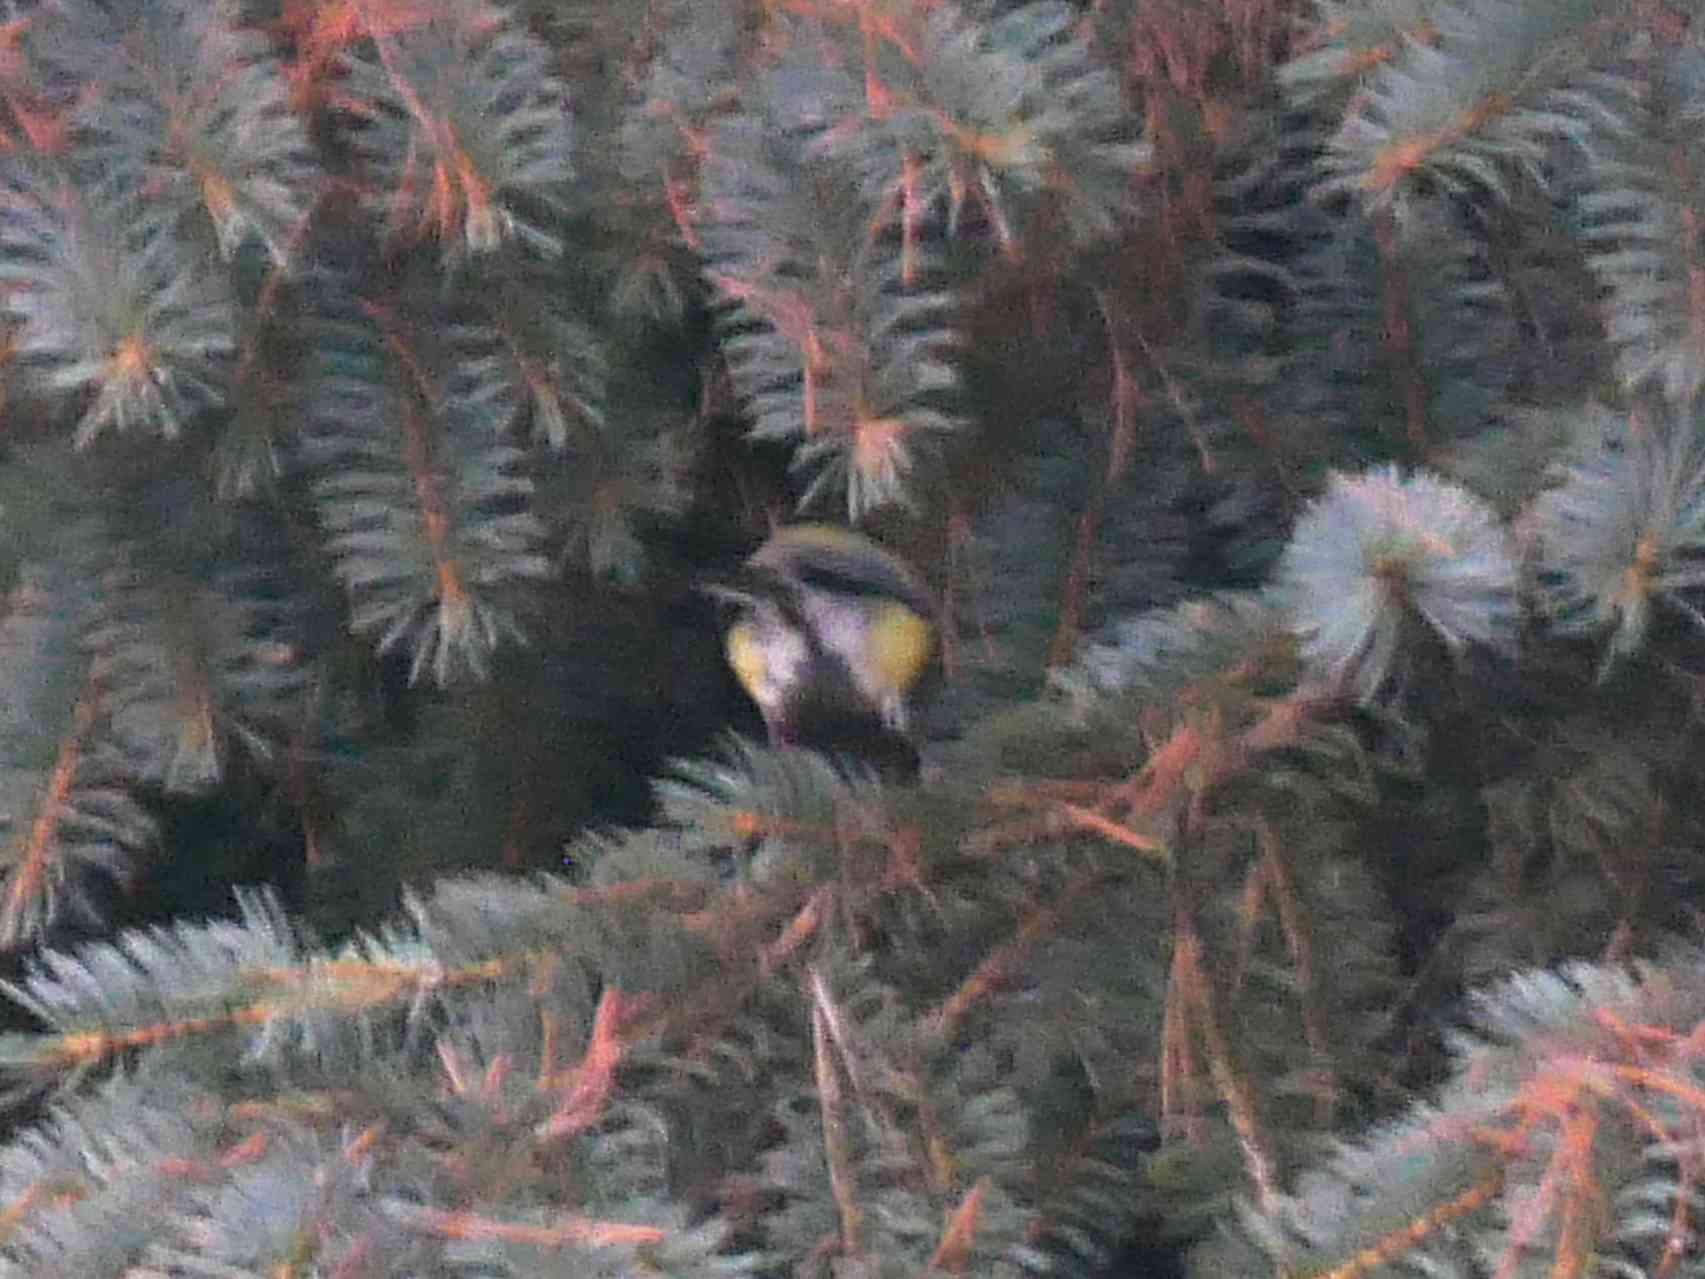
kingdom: Animalia
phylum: Chordata
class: Aves
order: Passeriformes
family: Paridae
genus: Parus
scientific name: Parus major
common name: Great tit
